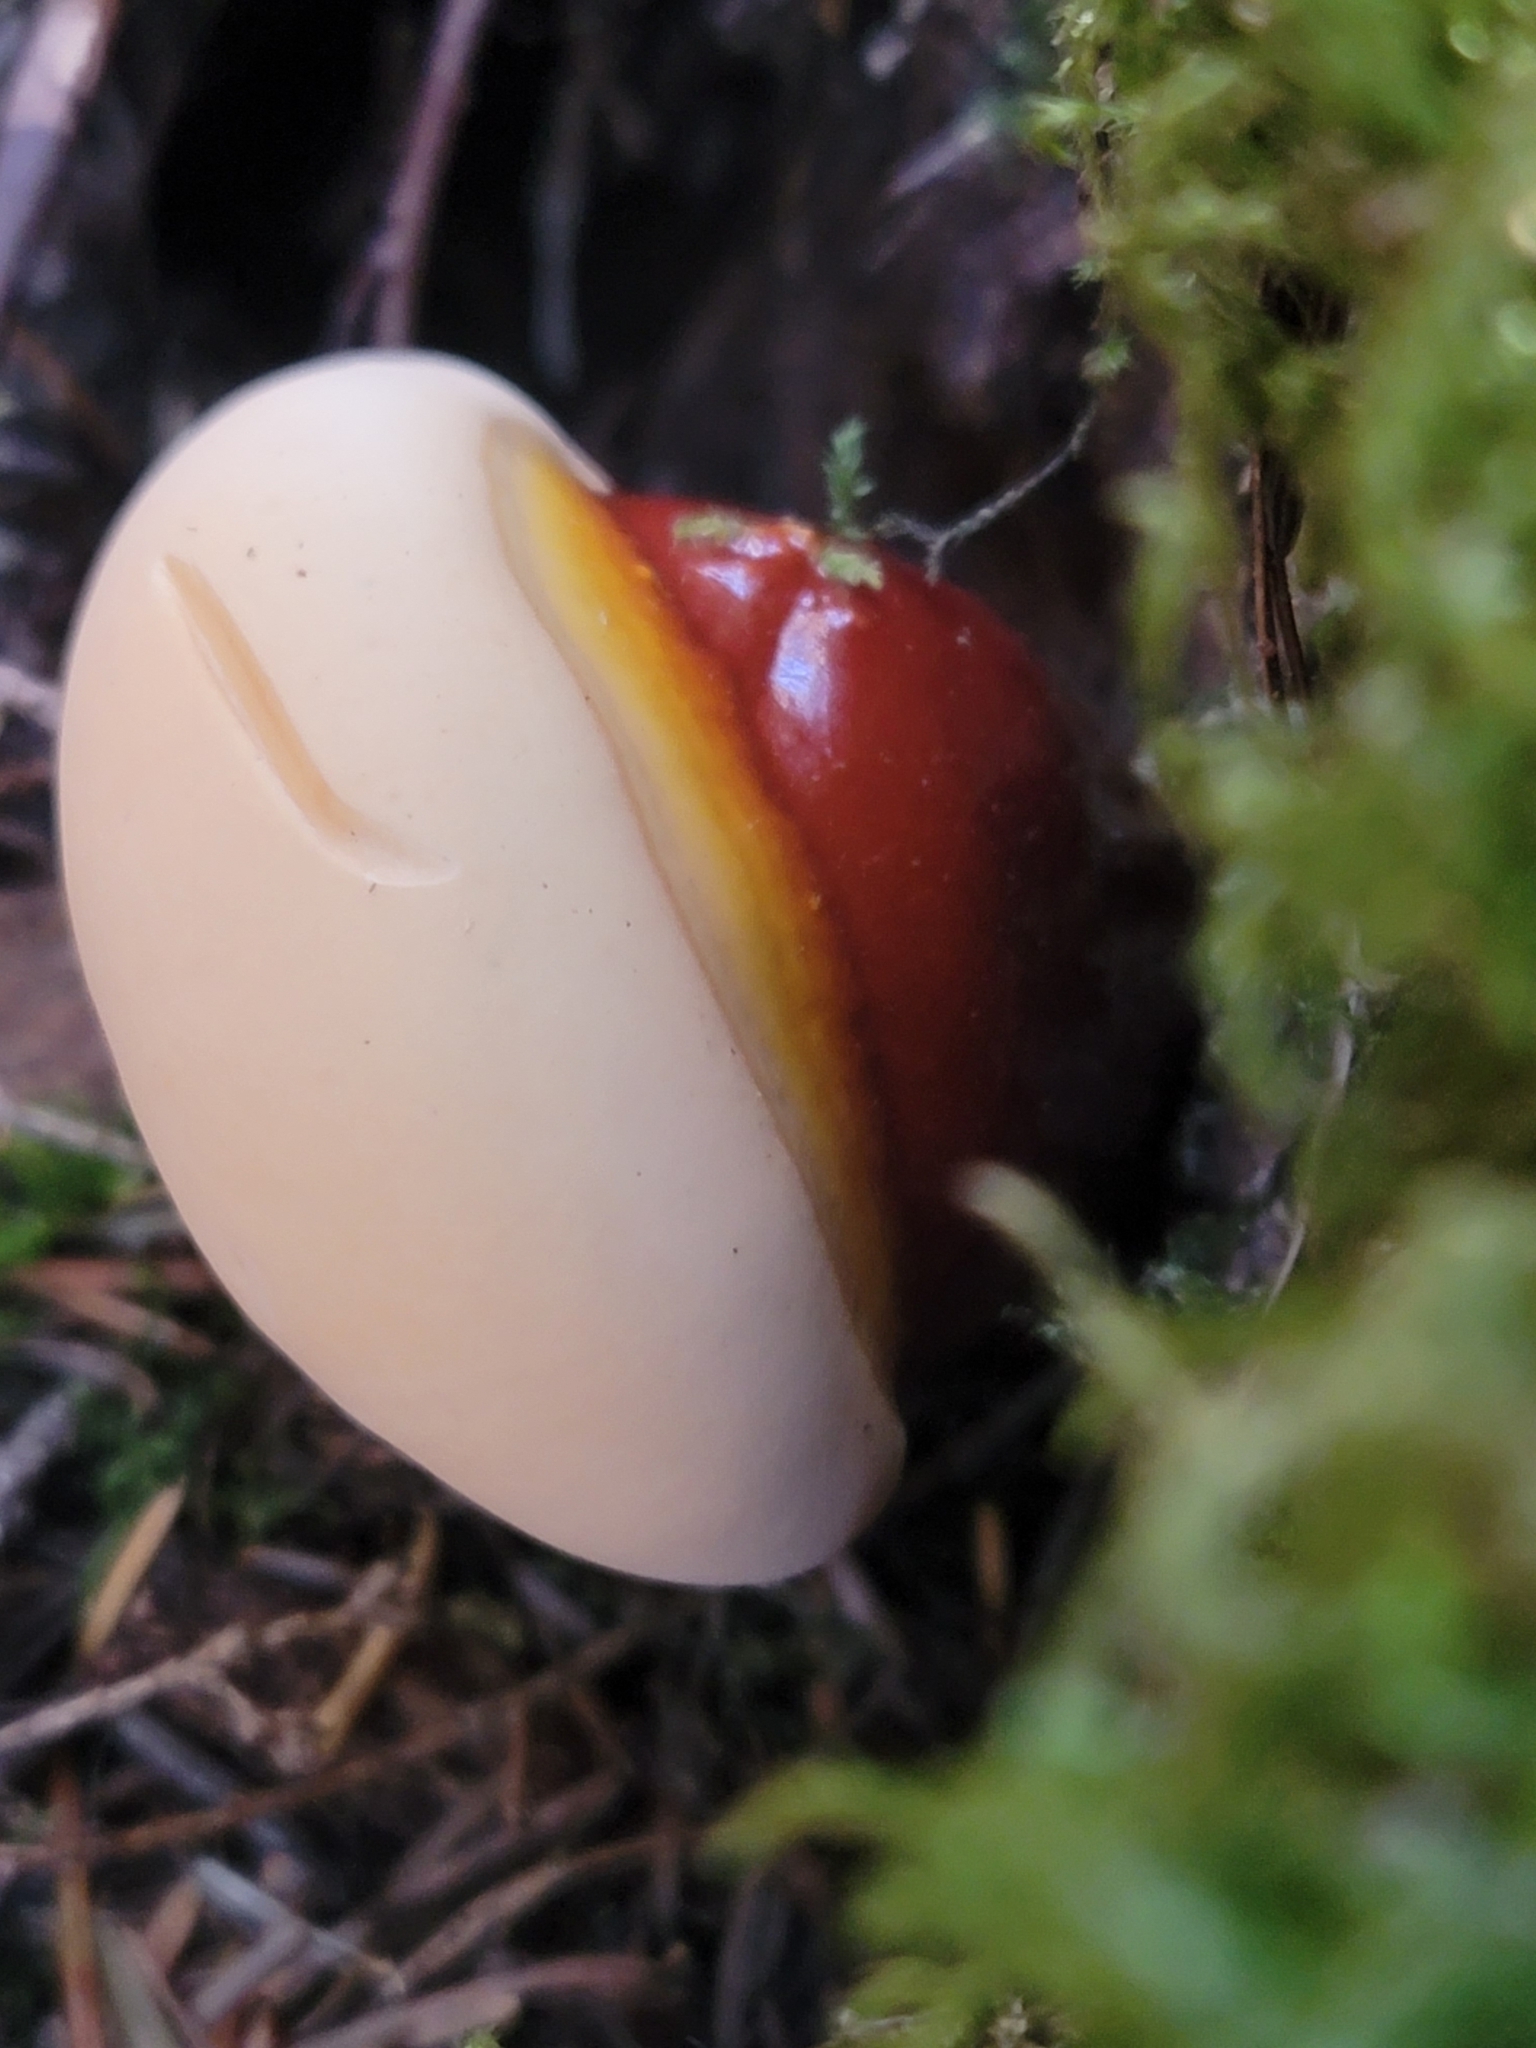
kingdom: Fungi
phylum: Basidiomycota
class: Agaricomycetes
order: Polyporales
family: Polyporaceae
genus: Ganoderma
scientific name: Ganoderma oregonense
